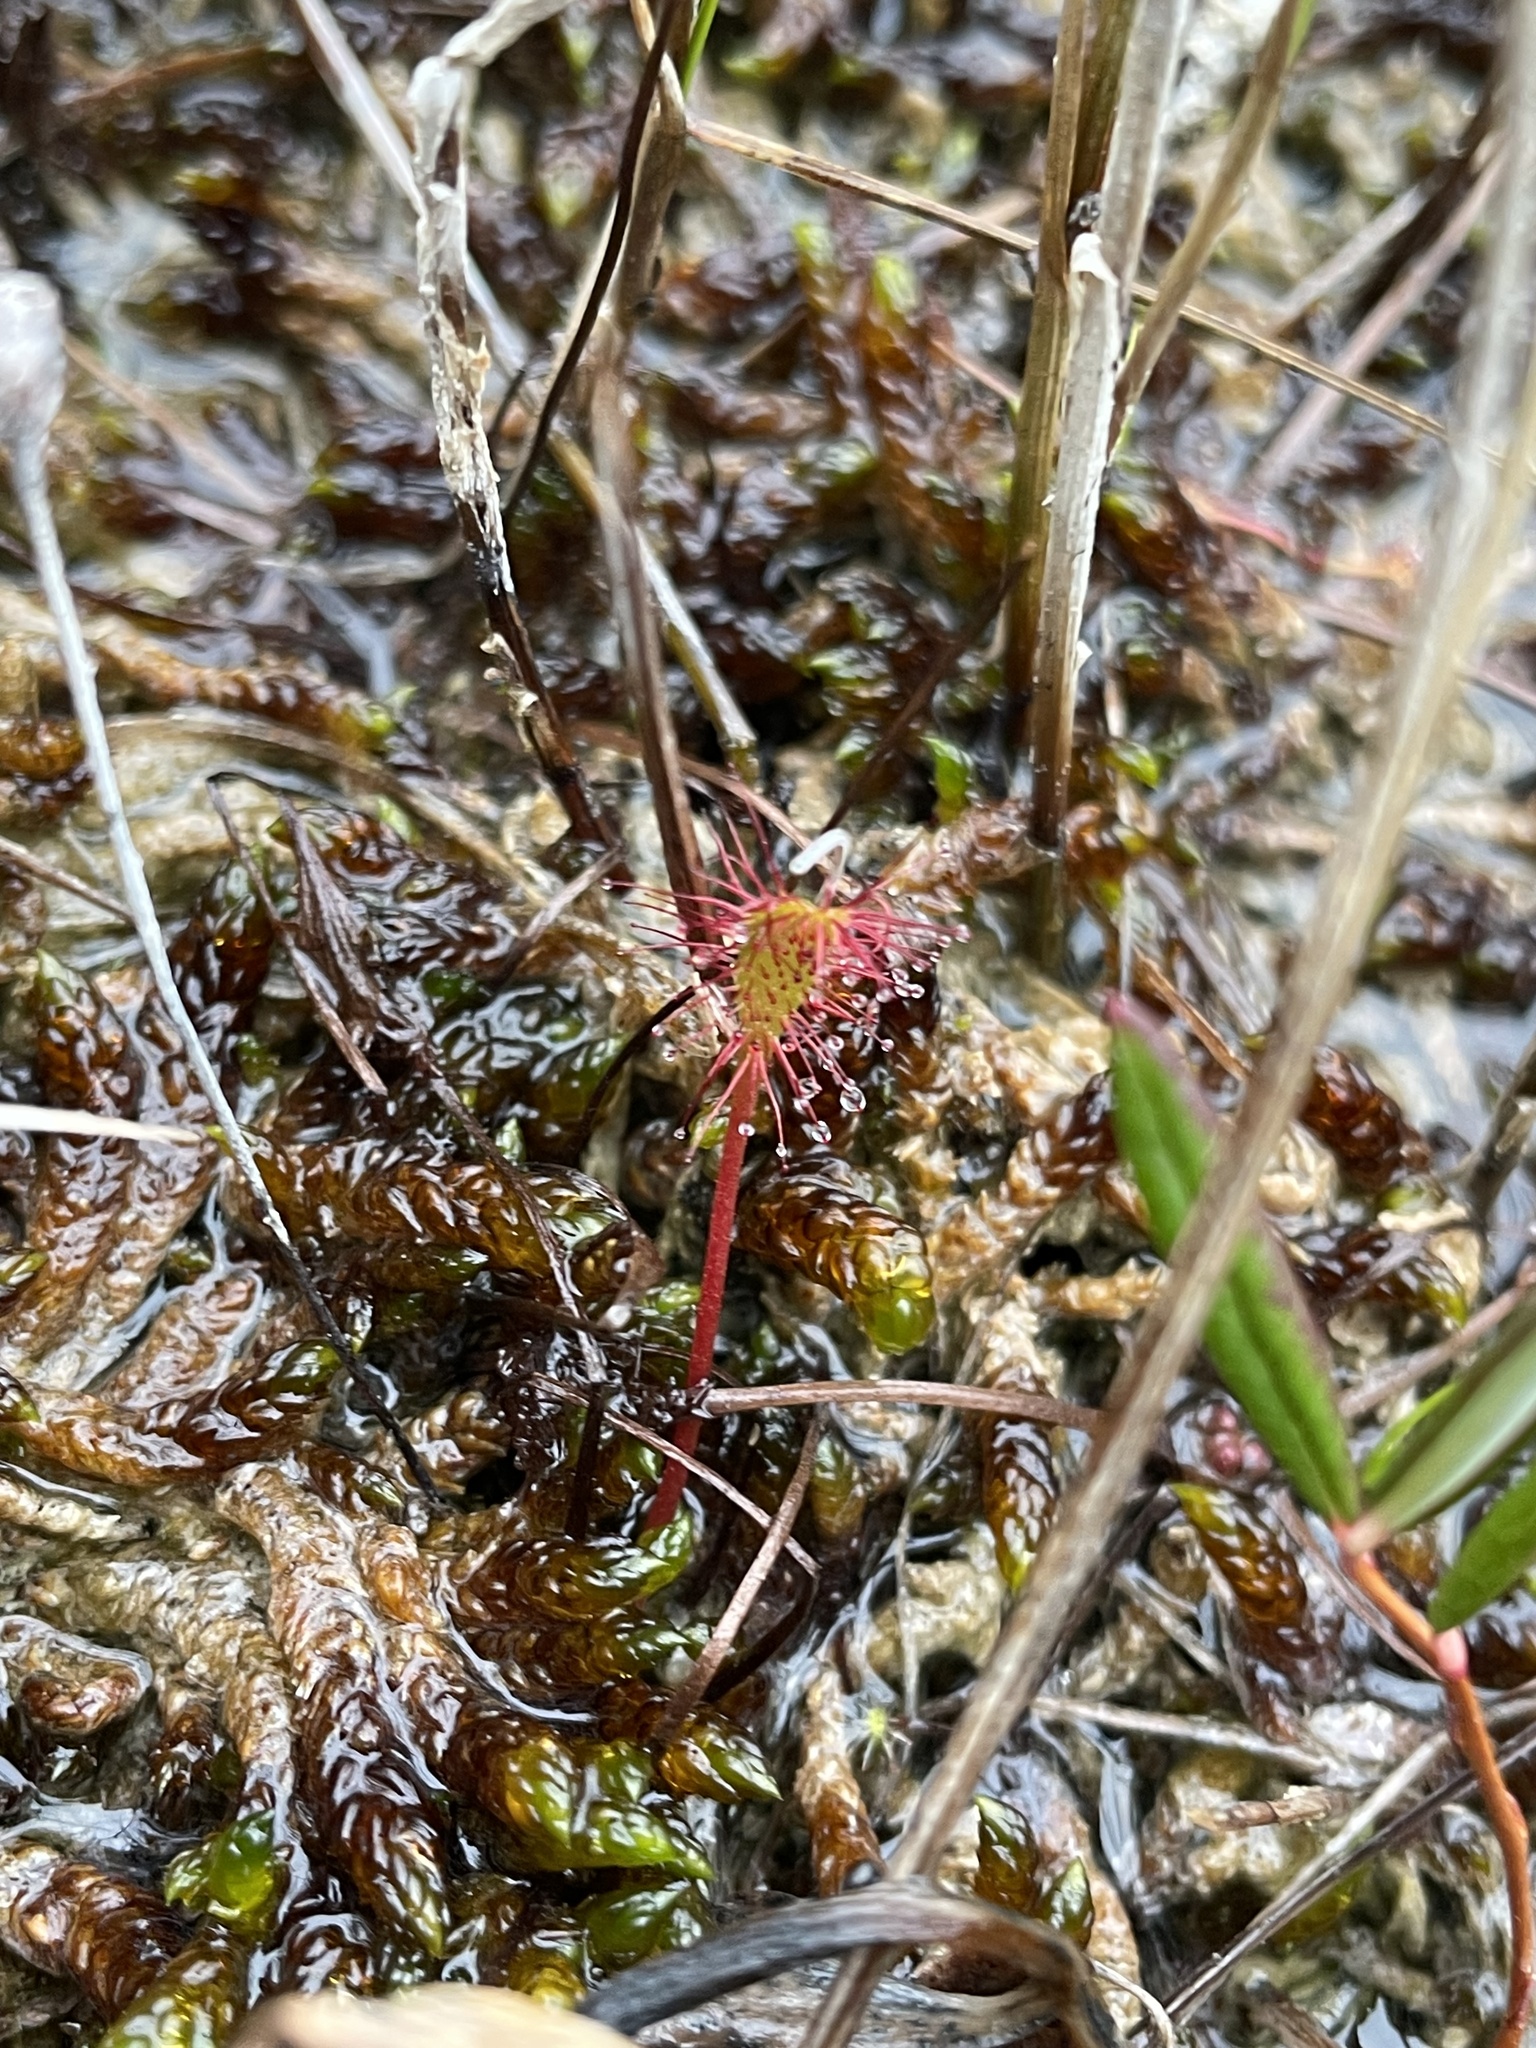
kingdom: Plantae
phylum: Tracheophyta
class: Magnoliopsida
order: Caryophyllales
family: Droseraceae
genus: Drosera
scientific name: Drosera anglica
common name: Great sundew
